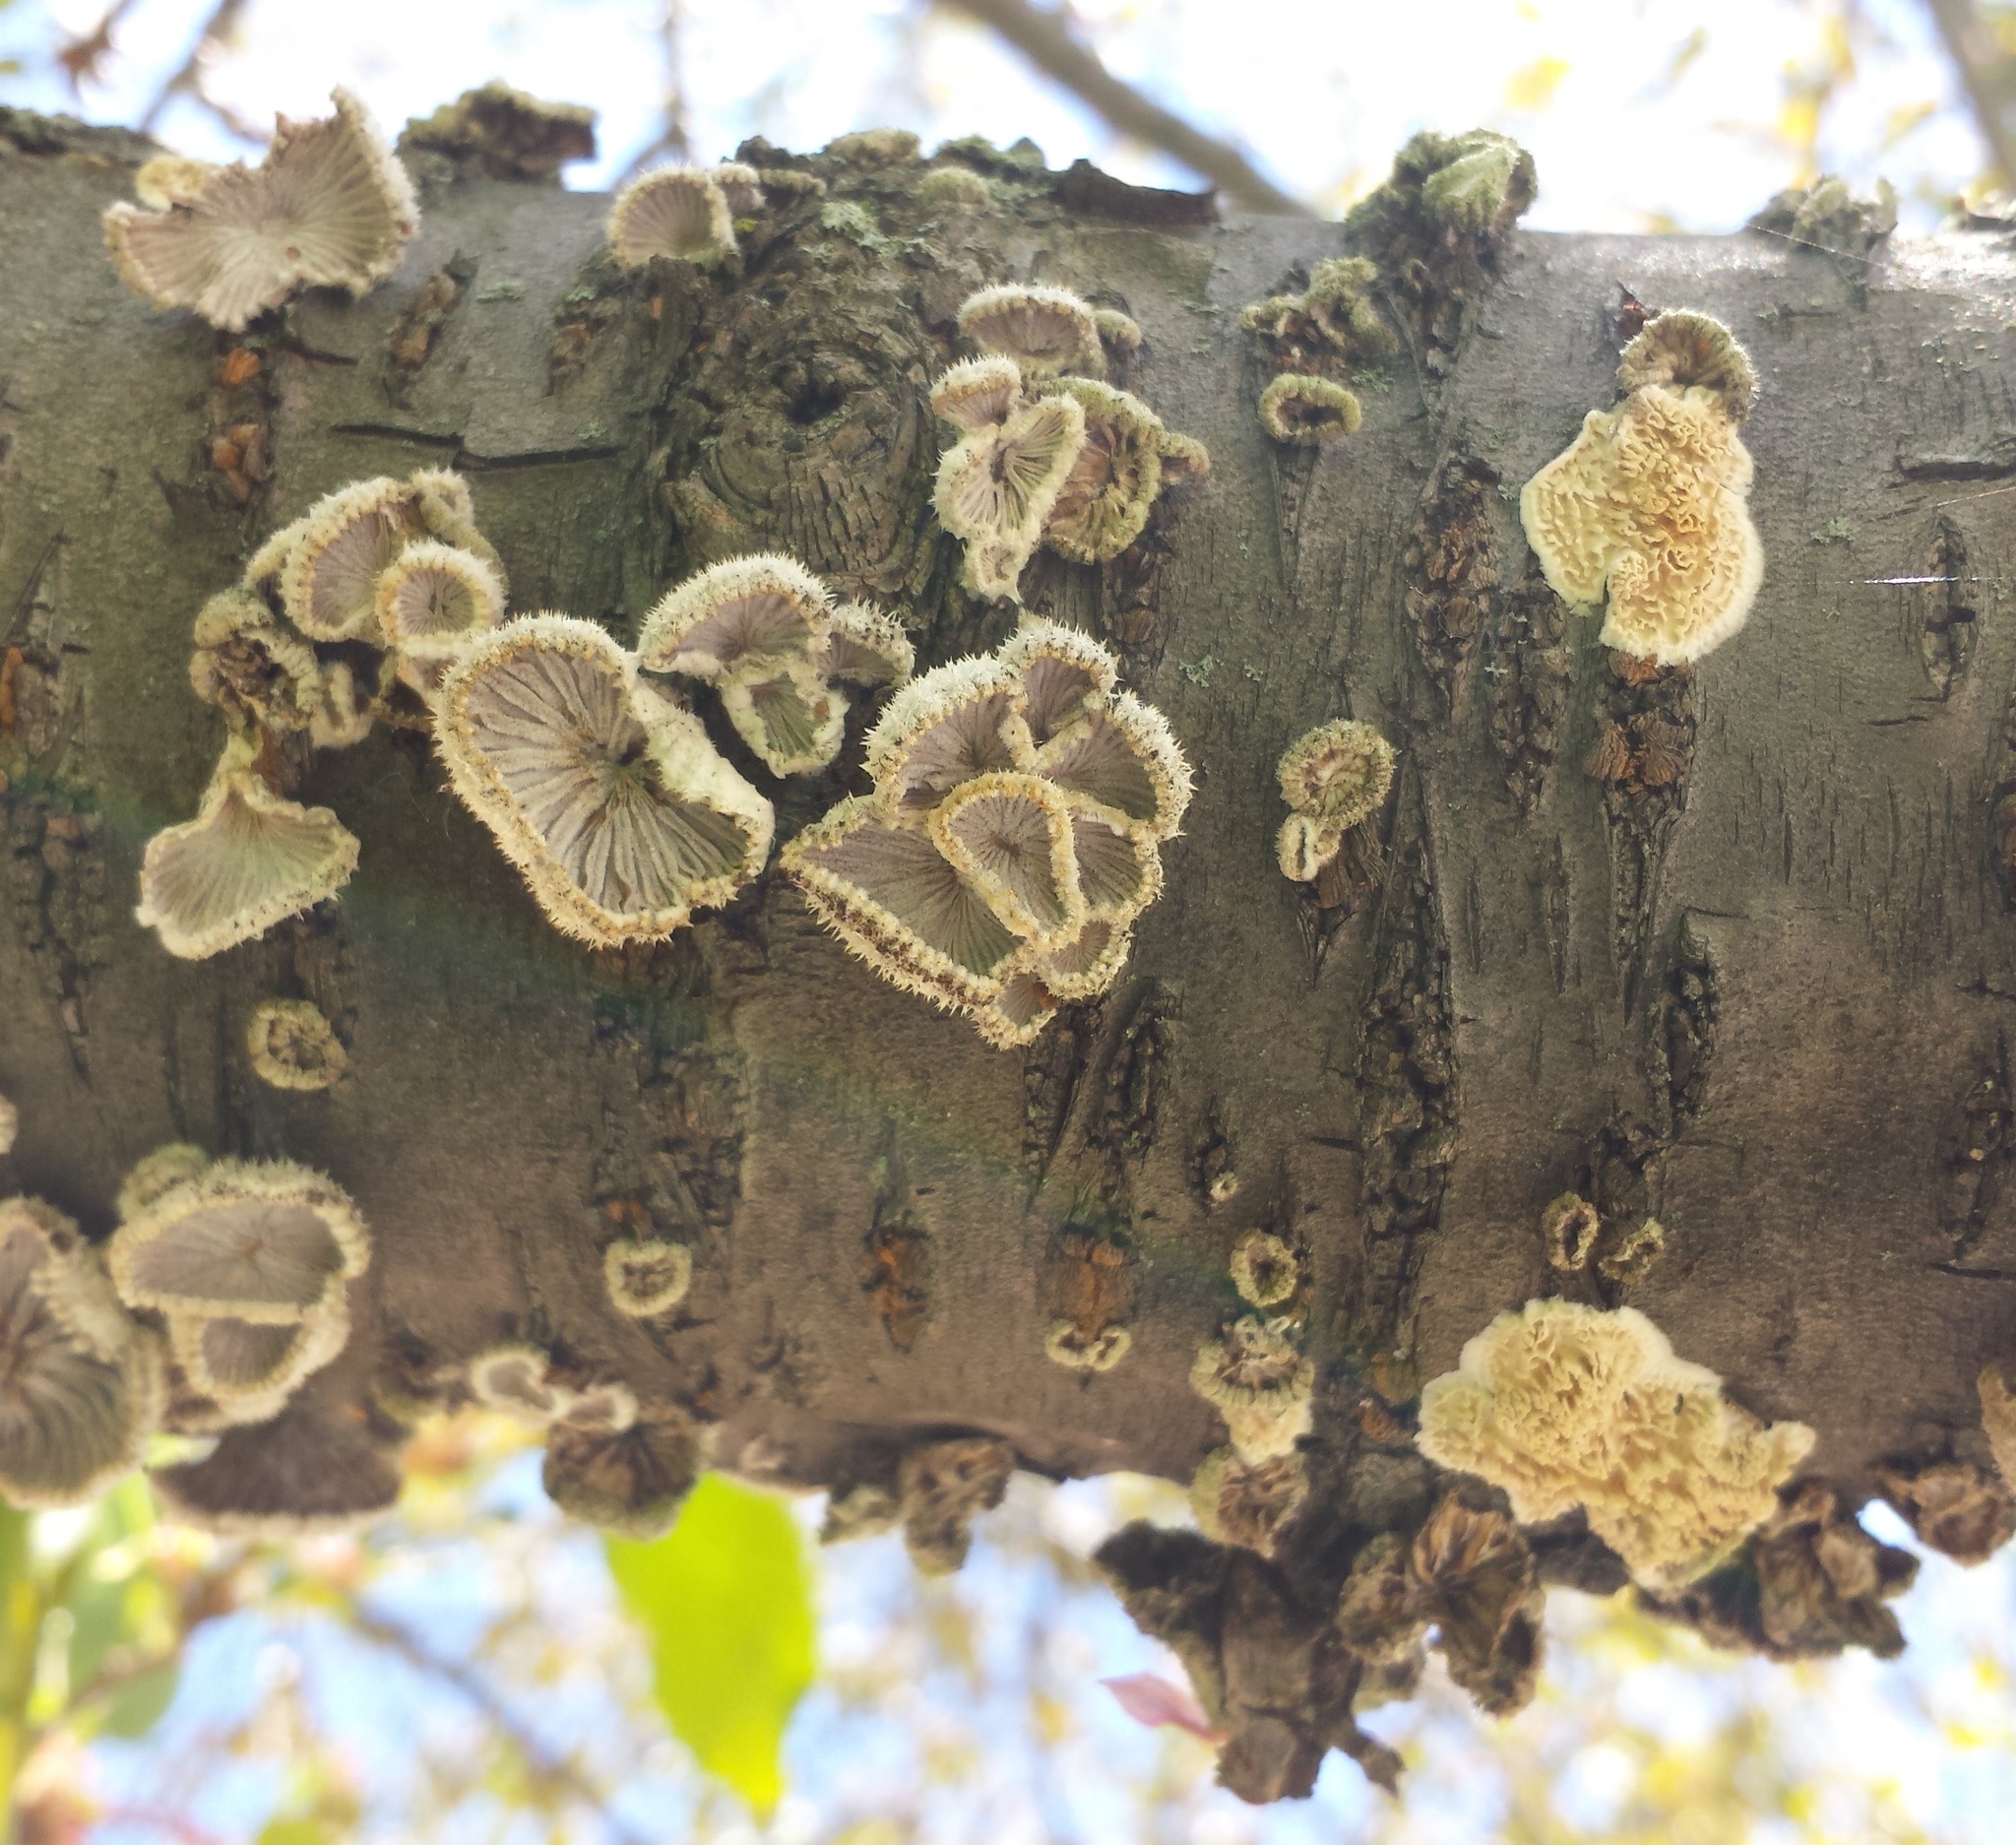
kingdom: Fungi
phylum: Basidiomycota
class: Agaricomycetes
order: Agaricales
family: Schizophyllaceae
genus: Schizophyllum
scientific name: Schizophyllum commune
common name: Common porecrust
